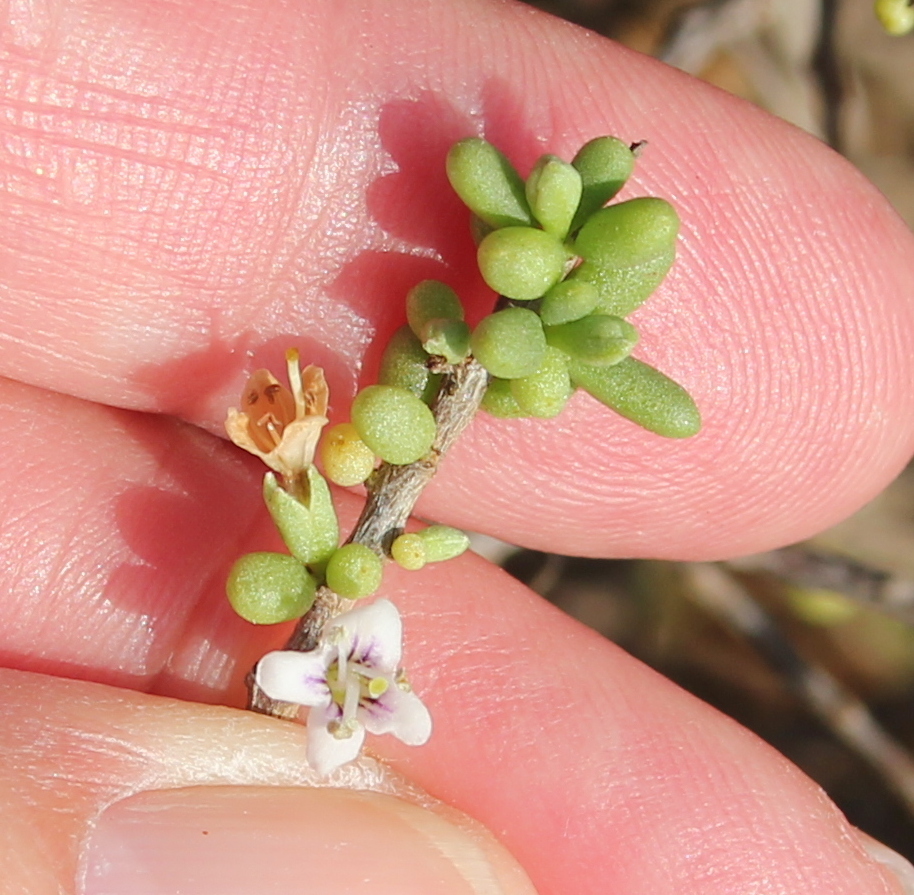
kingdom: Plantae
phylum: Tracheophyta
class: Magnoliopsida
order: Solanales
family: Solanaceae
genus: Lycium
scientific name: Lycium californicum
